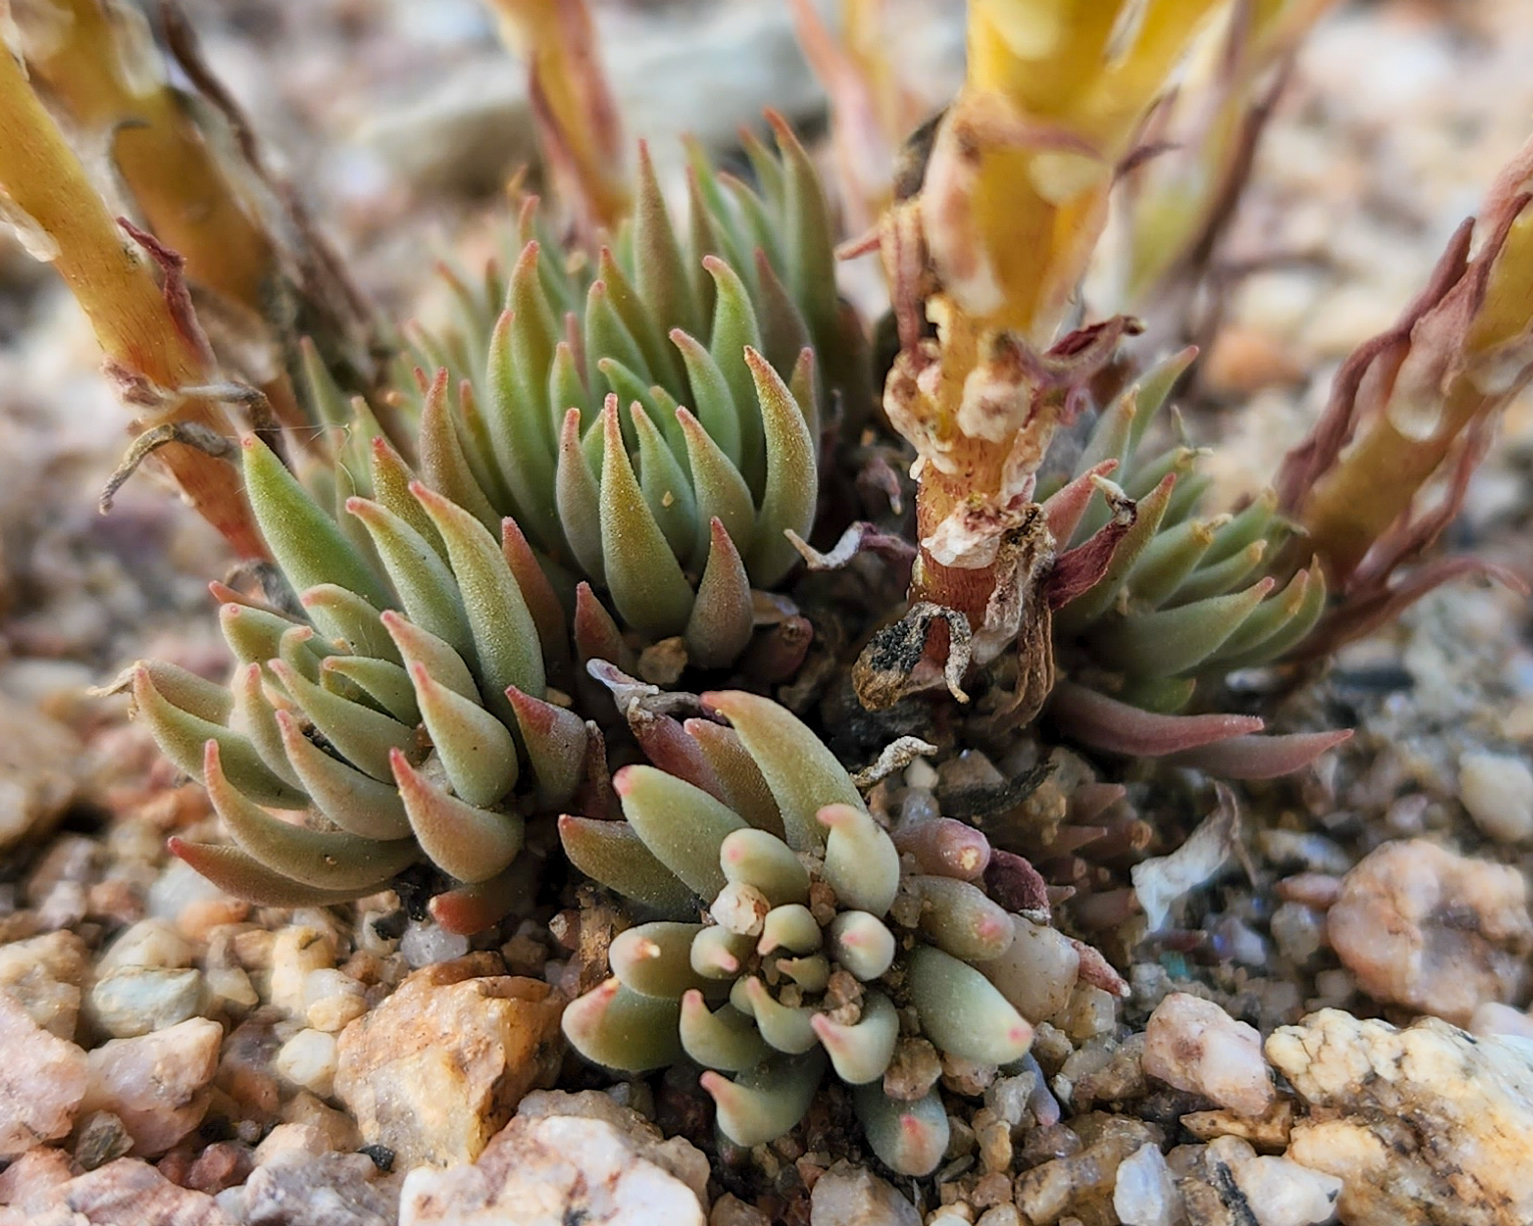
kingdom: Plantae
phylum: Tracheophyta
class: Magnoliopsida
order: Saxifragales
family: Crassulaceae
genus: Sedum
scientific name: Sedum lanceolatum
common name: Common stonecrop
